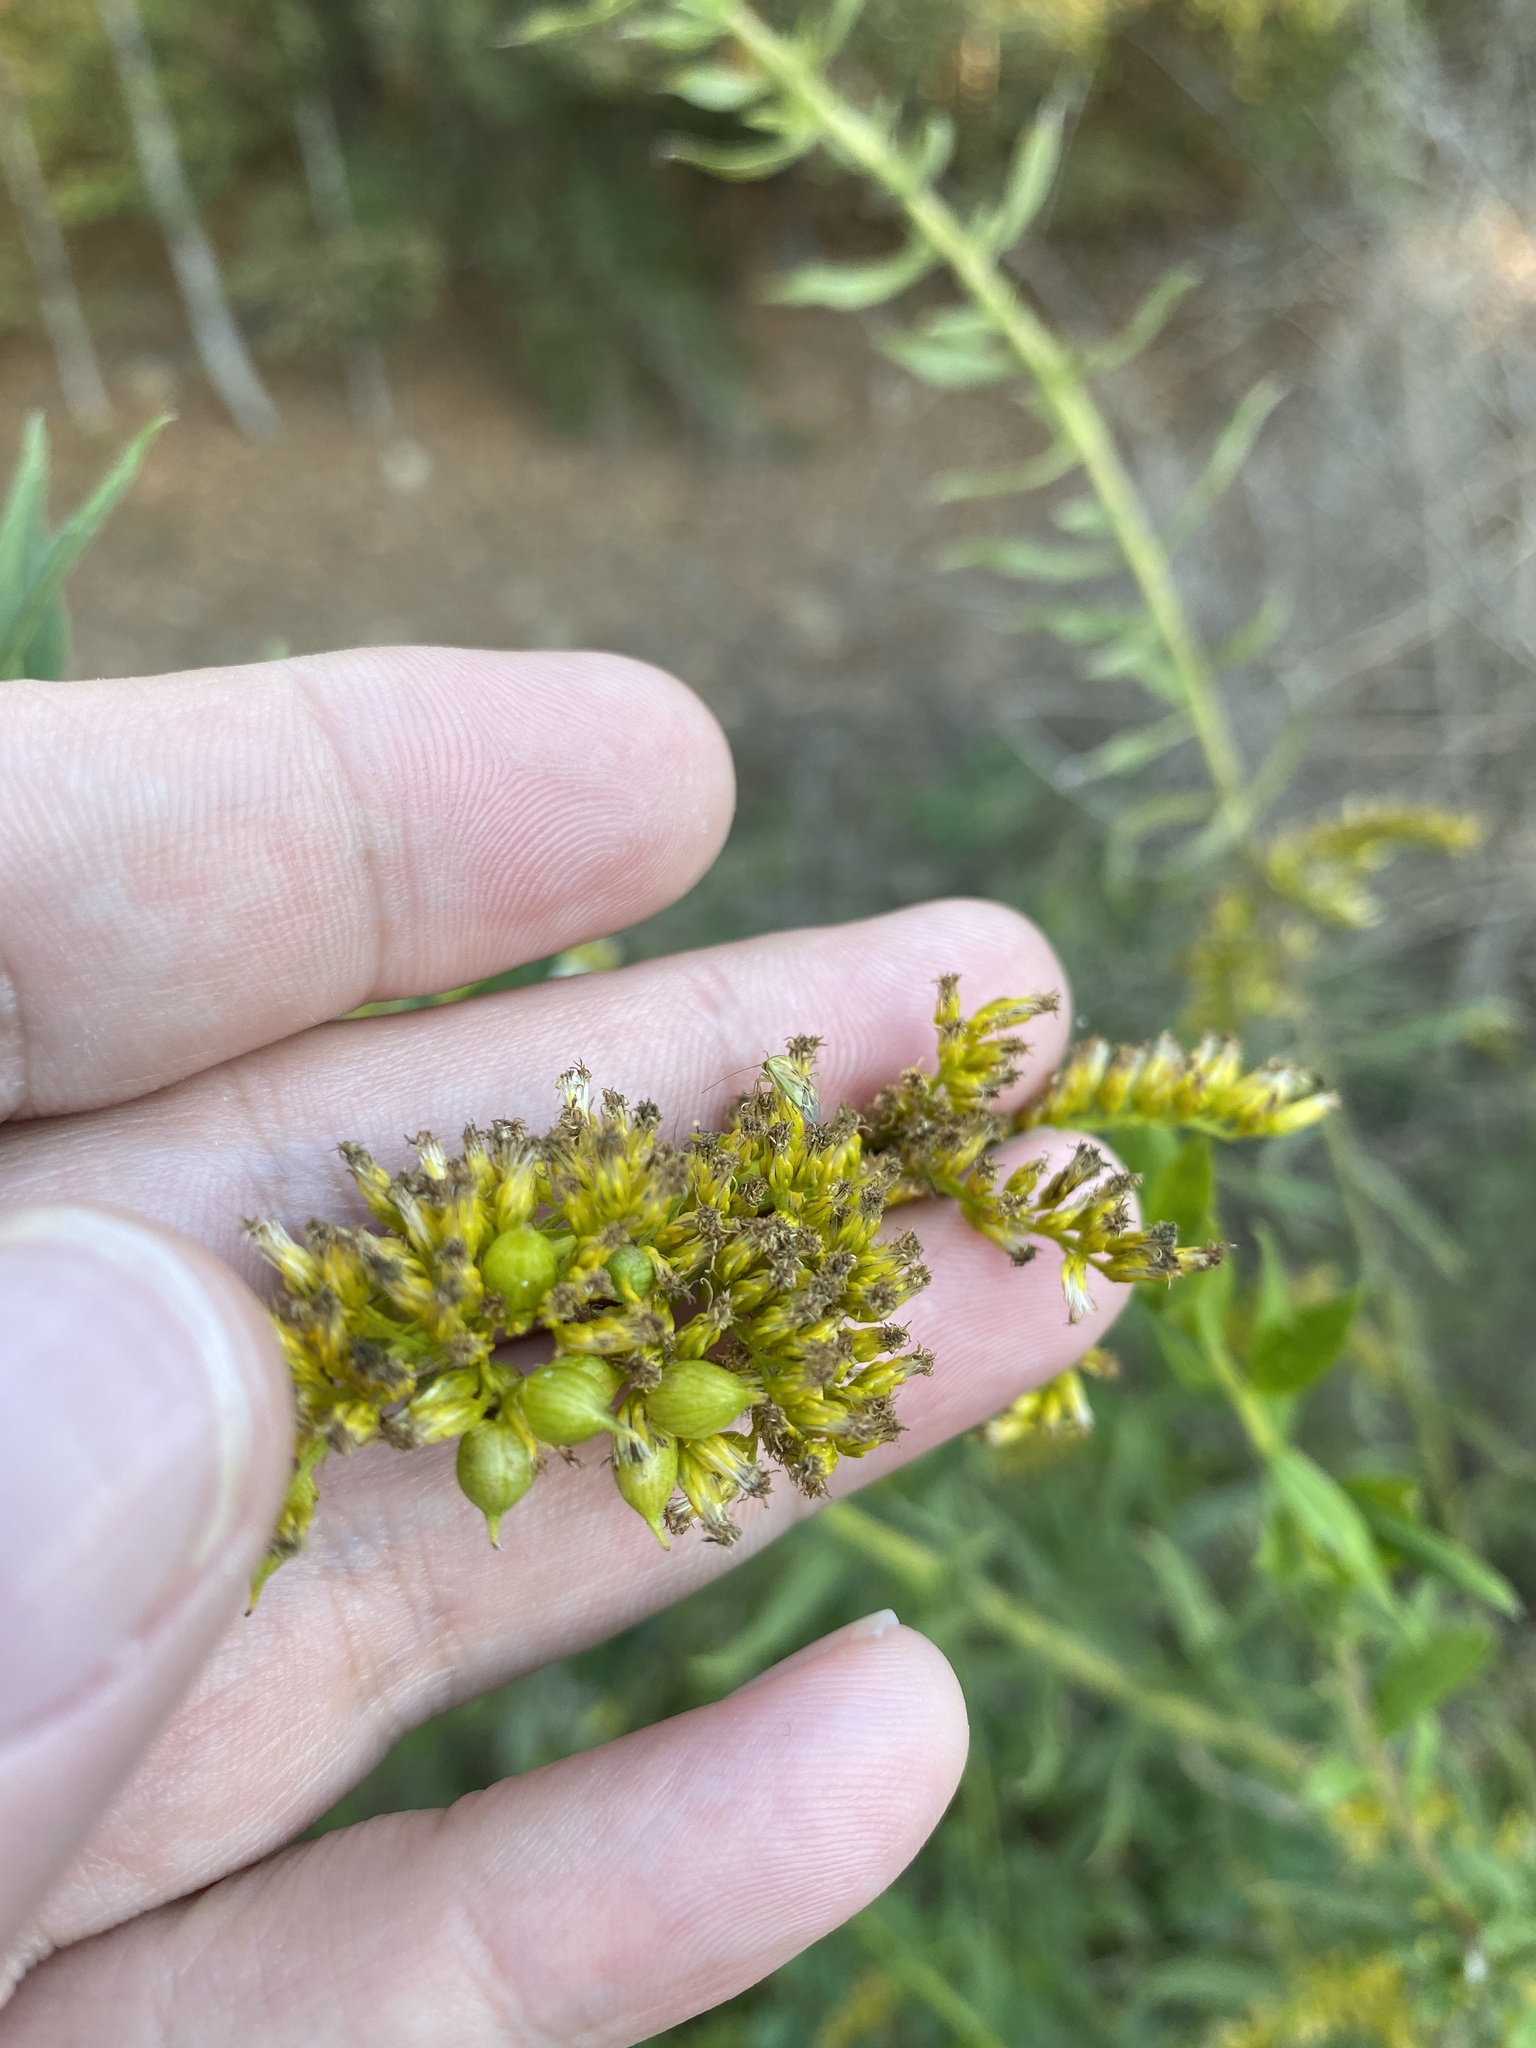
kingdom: Animalia
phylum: Arthropoda
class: Insecta
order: Diptera
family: Cecidomyiidae
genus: Schizomyia
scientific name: Schizomyia racemicola
